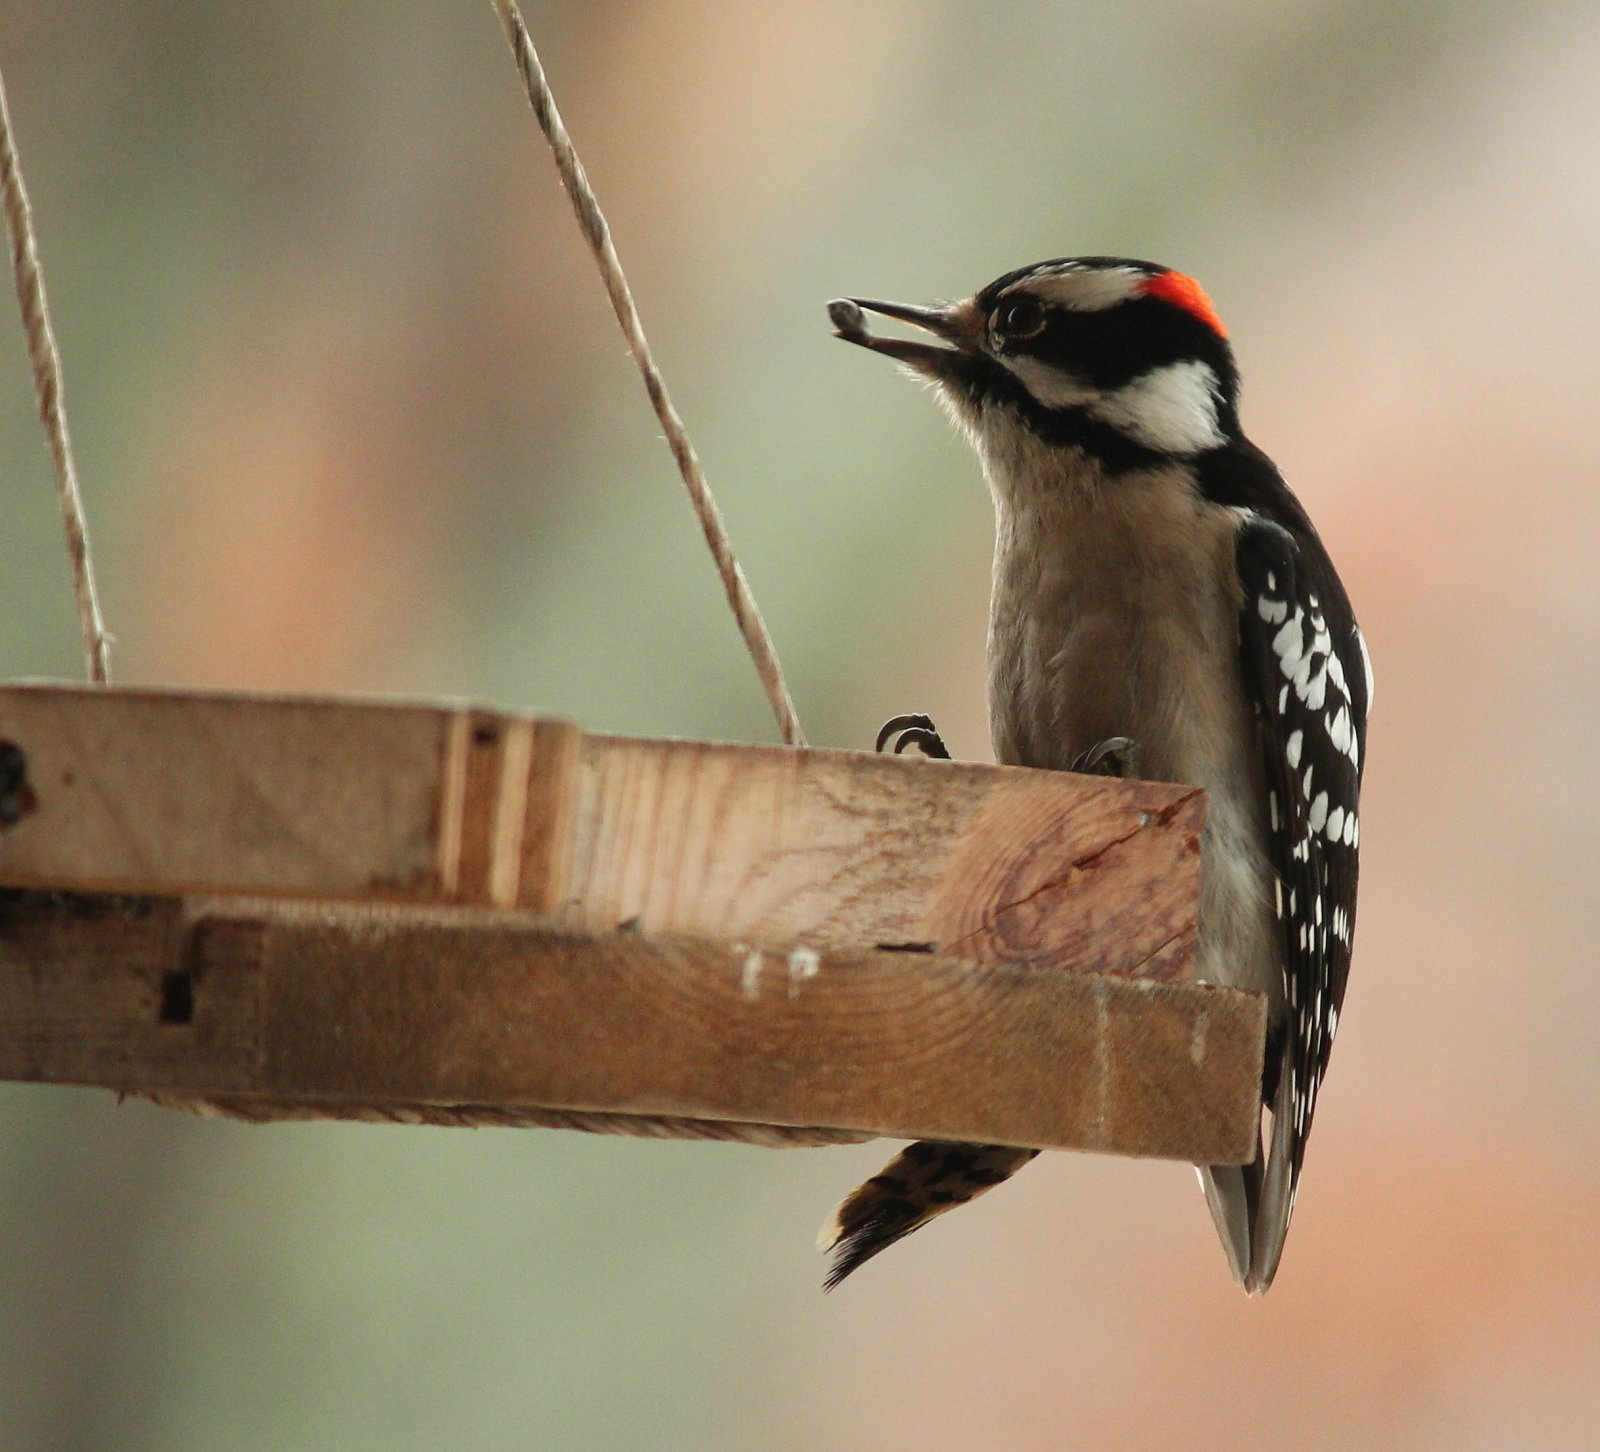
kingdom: Animalia
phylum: Chordata
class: Aves
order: Piciformes
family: Picidae
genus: Dryobates
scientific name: Dryobates pubescens
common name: Downy woodpecker
